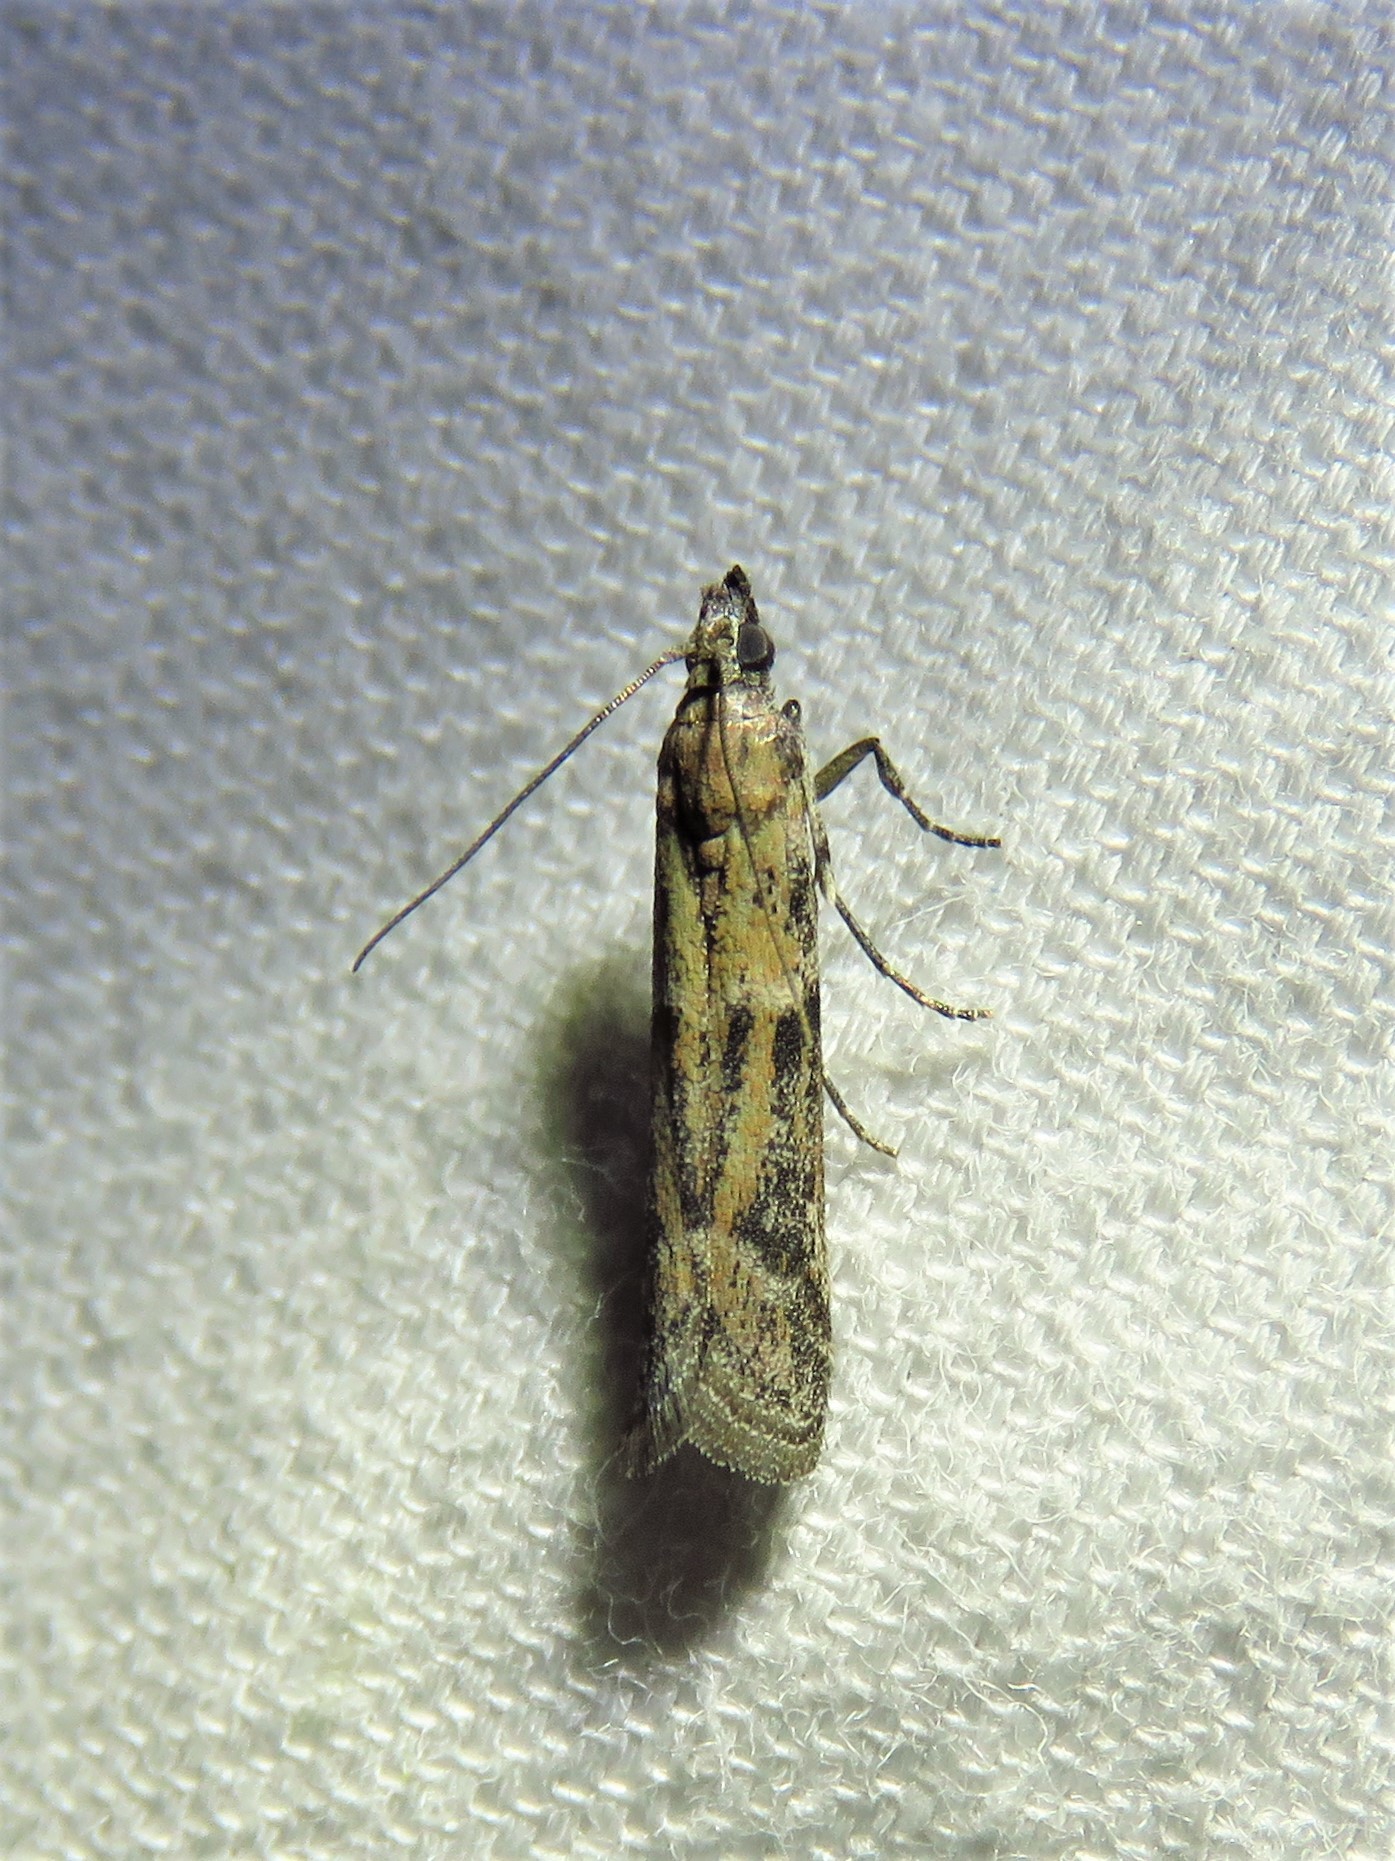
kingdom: Animalia
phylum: Arthropoda
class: Insecta
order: Lepidoptera
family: Pyralidae
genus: Ephestiodes
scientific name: Ephestiodes gilvescentella
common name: Moth
